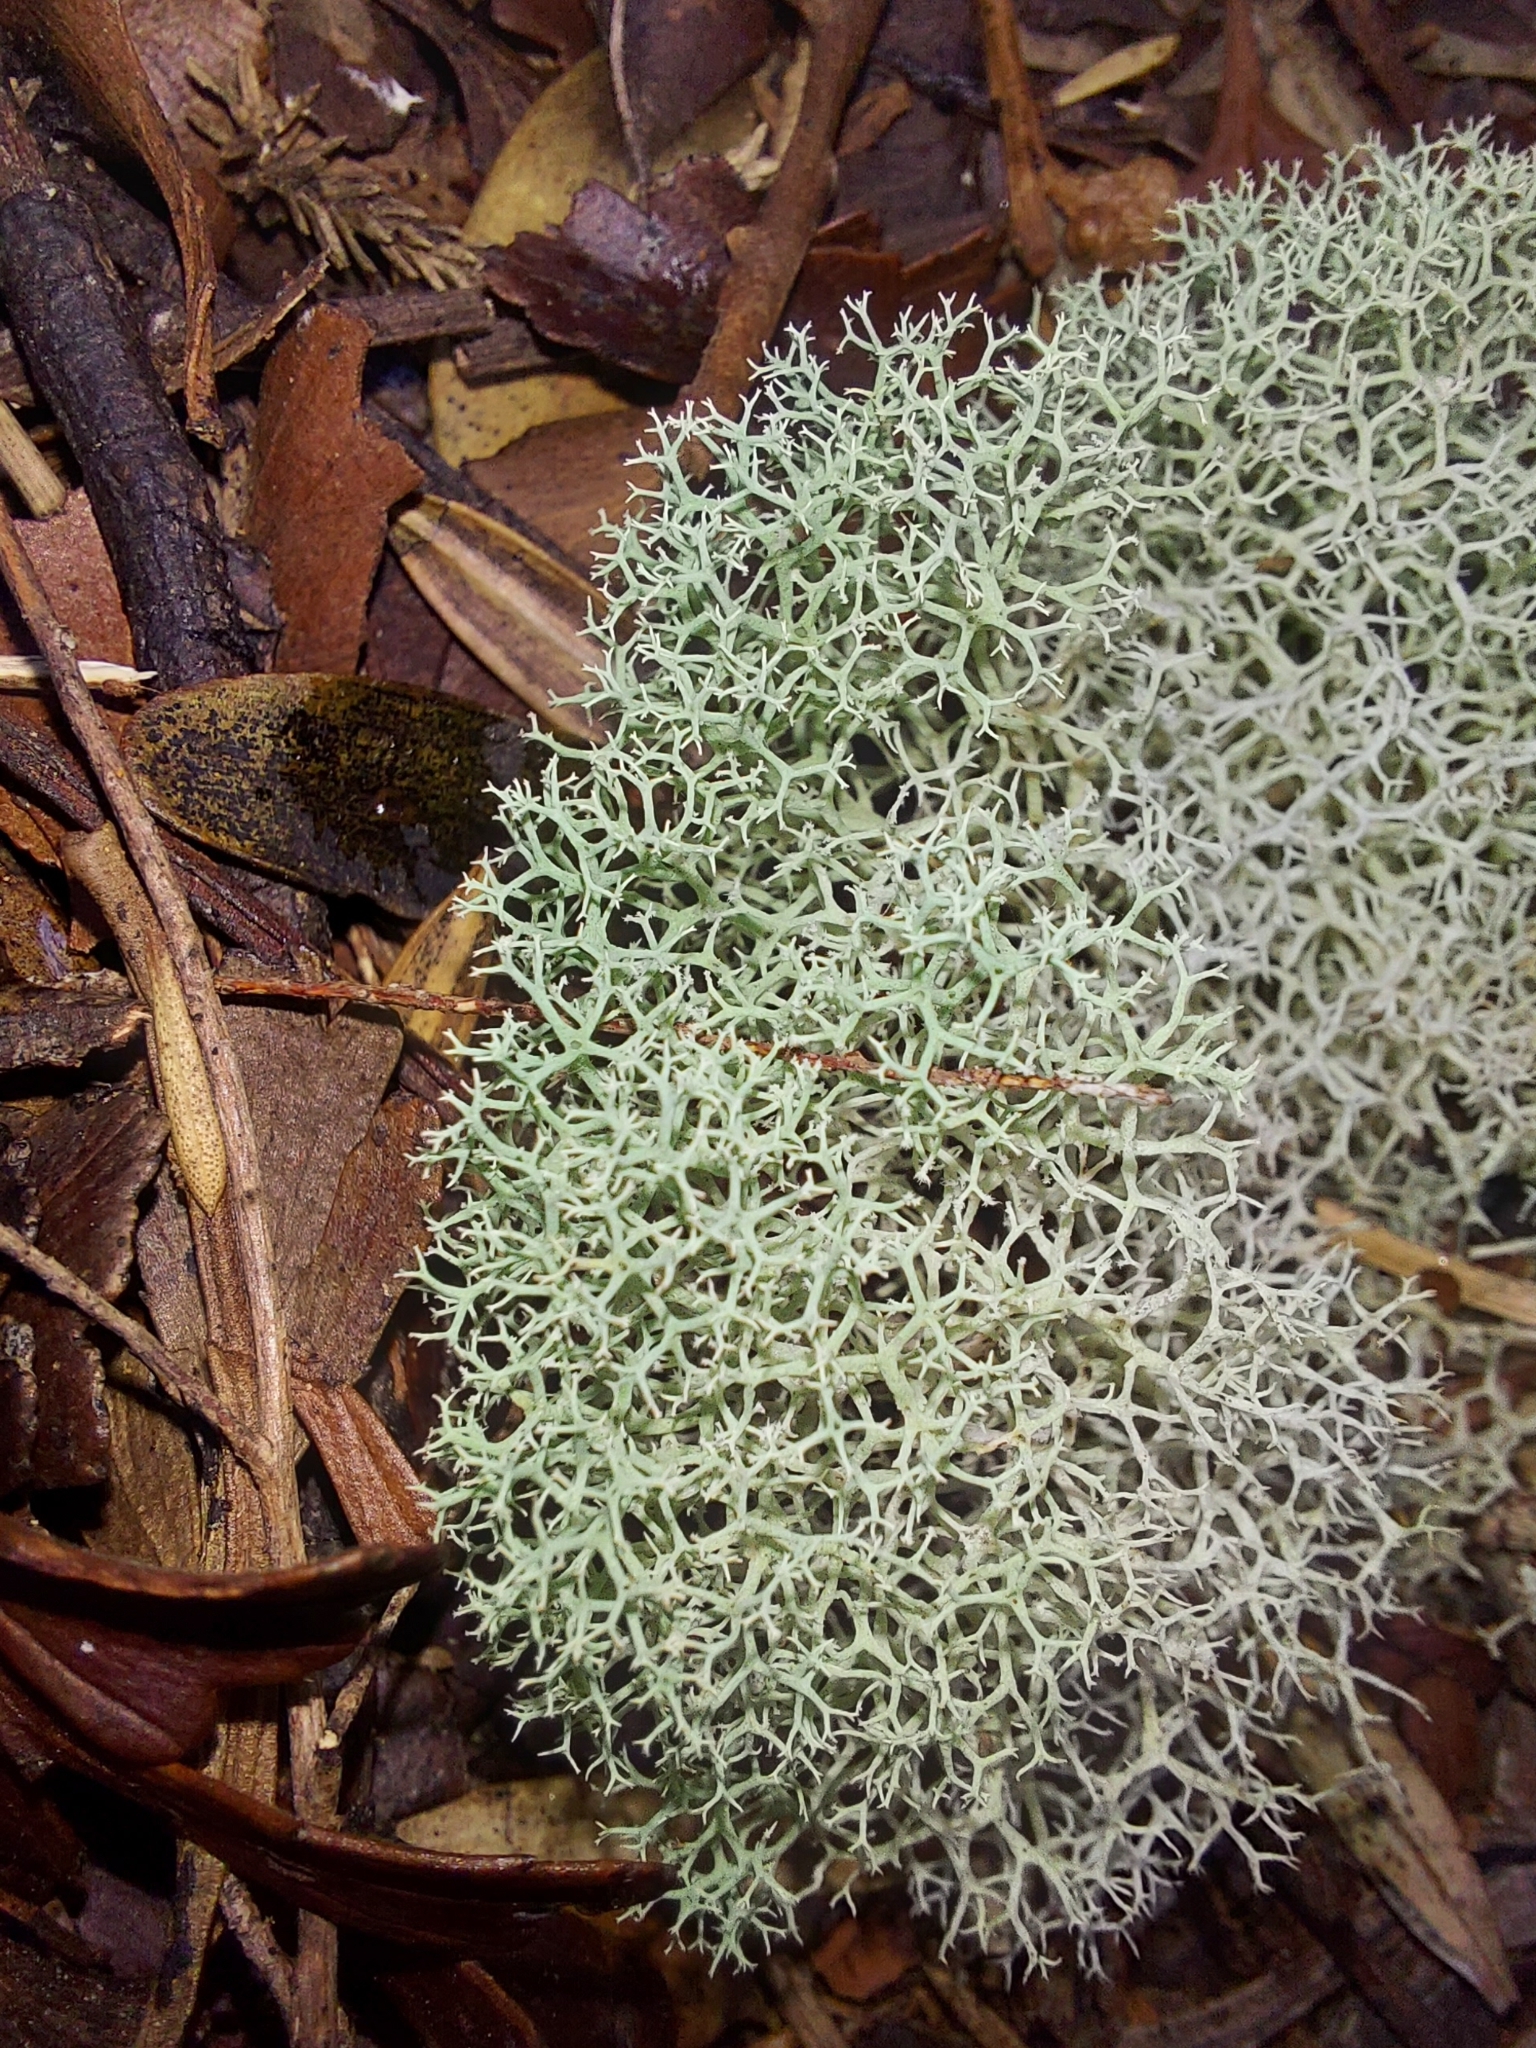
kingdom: Fungi
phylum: Ascomycota
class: Lecanoromycetes
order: Lecanorales
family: Cladoniaceae
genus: Cladonia
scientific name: Cladonia confusa
